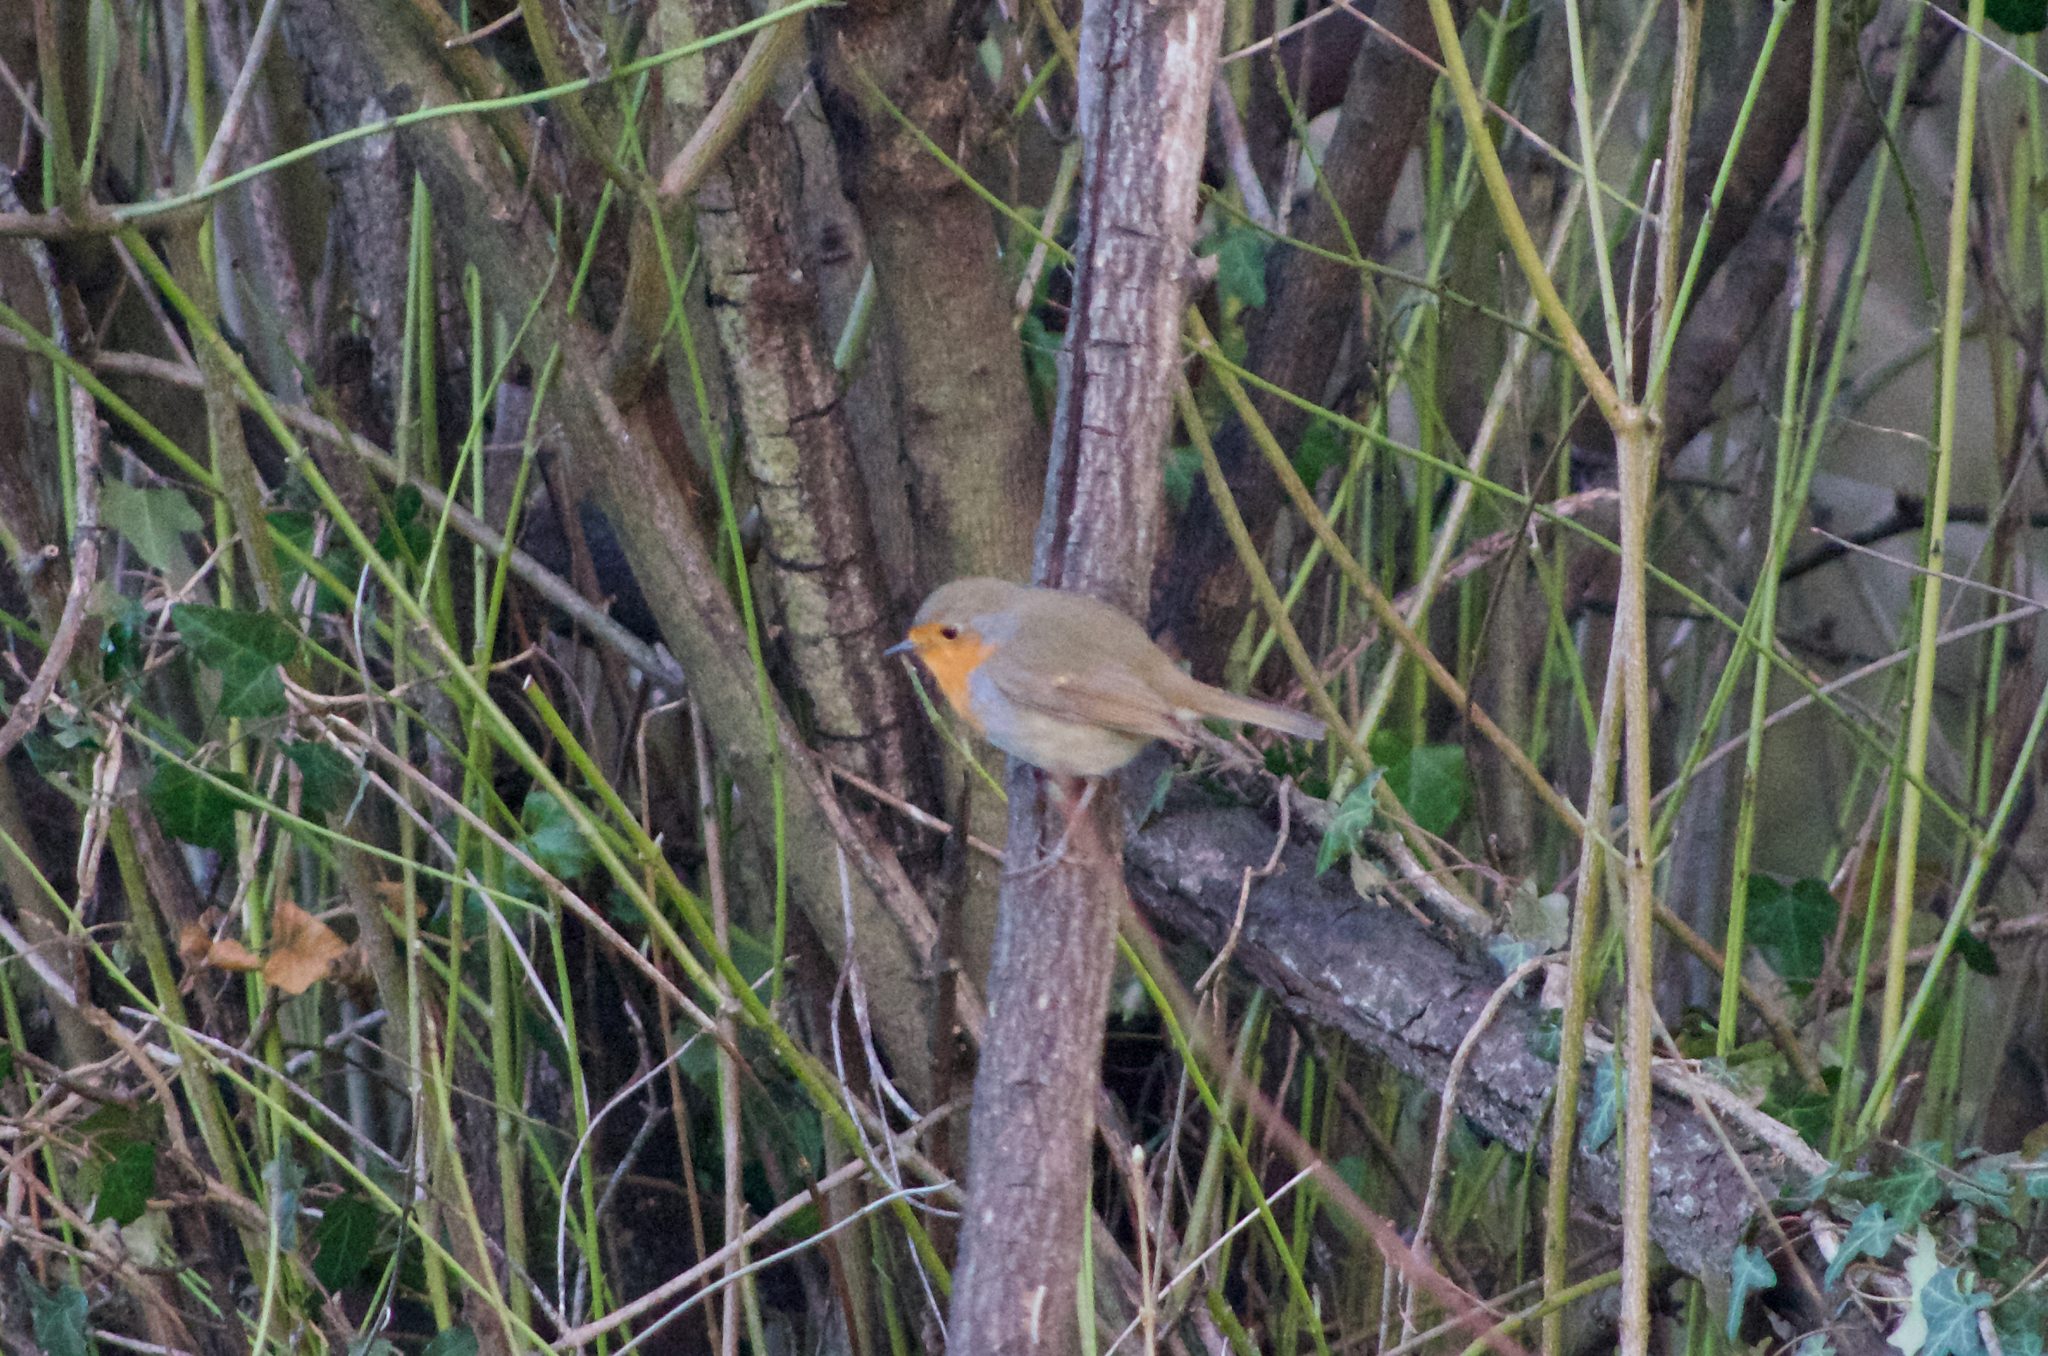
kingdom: Animalia
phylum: Chordata
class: Aves
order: Passeriformes
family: Muscicapidae
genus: Erithacus
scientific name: Erithacus rubecula
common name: European robin
